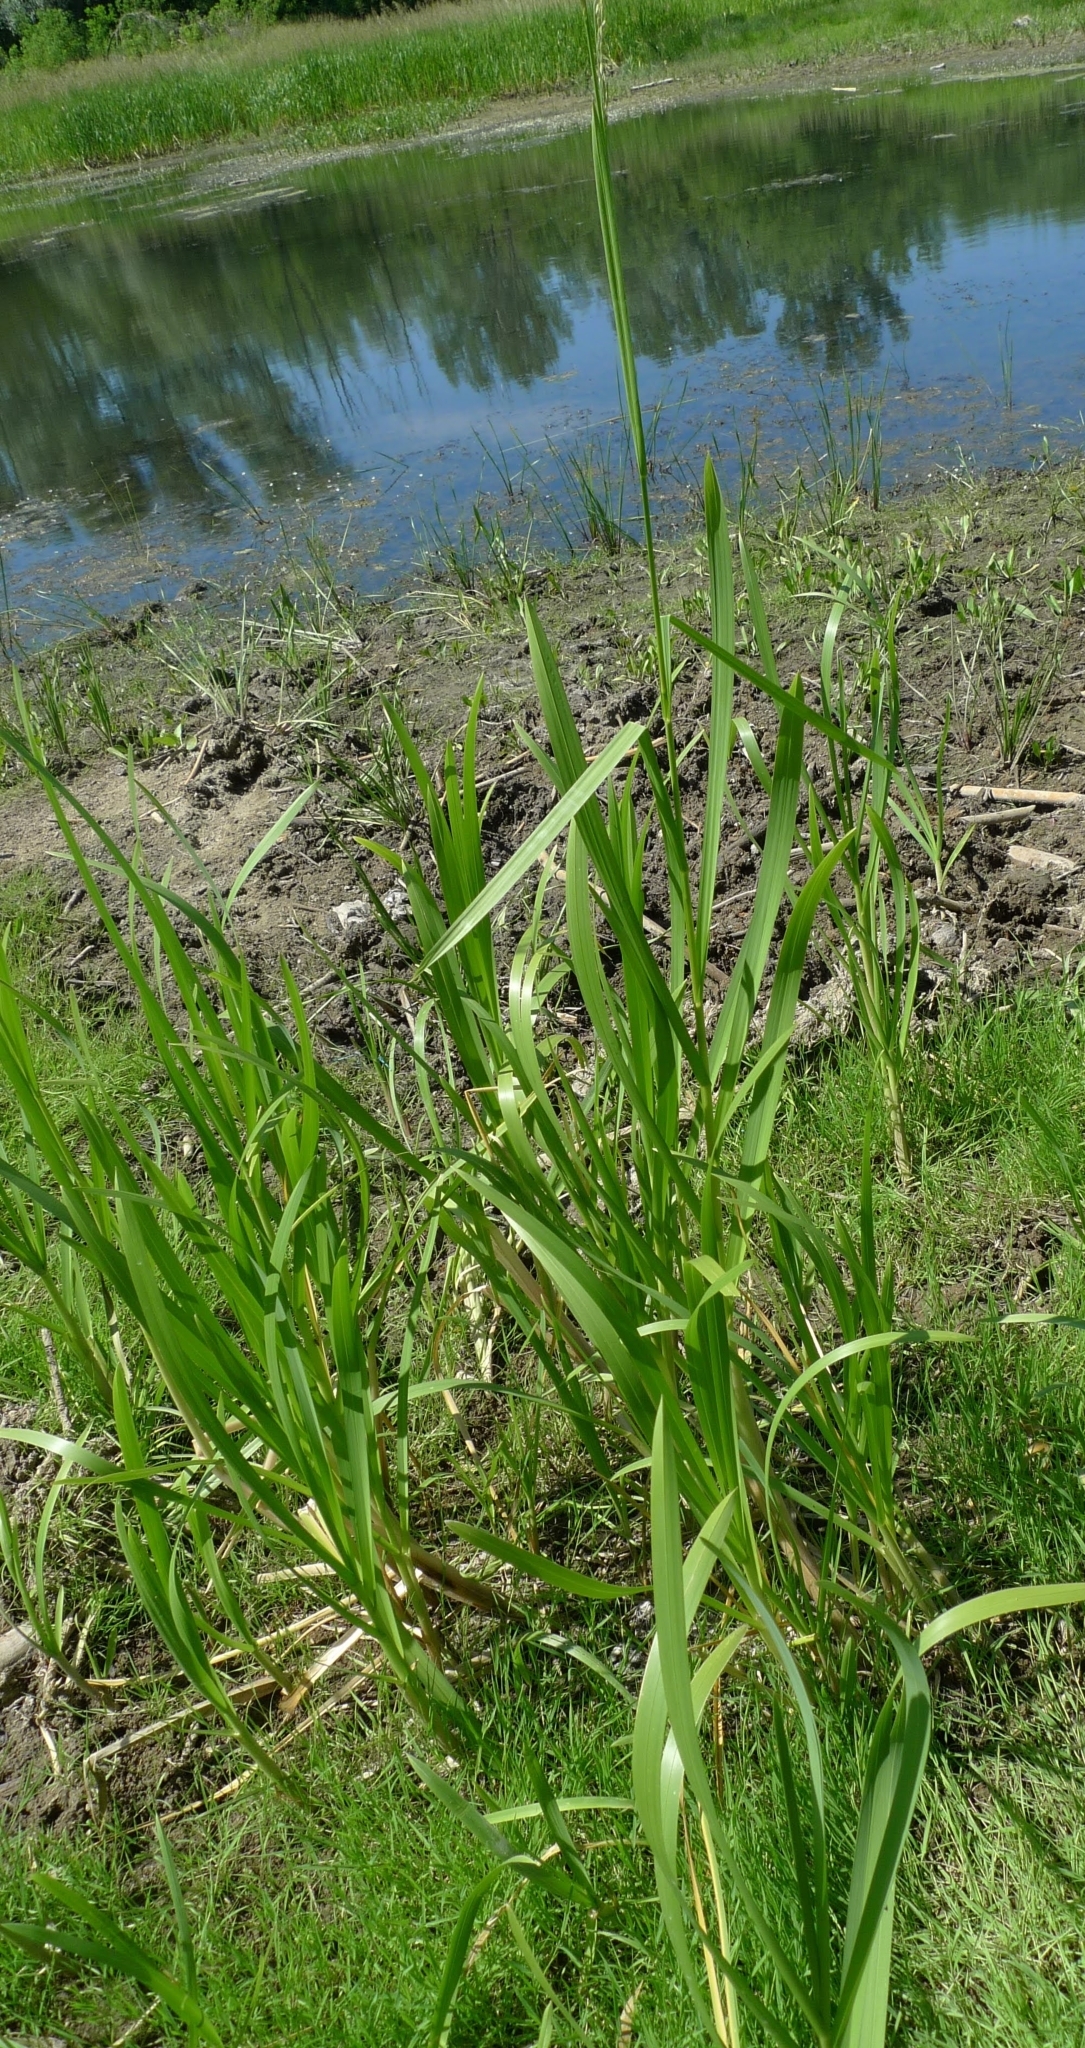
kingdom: Plantae
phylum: Tracheophyta
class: Liliopsida
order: Poales
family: Poaceae
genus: Glyceria
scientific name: Glyceria maxima
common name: Reed mannagrass
